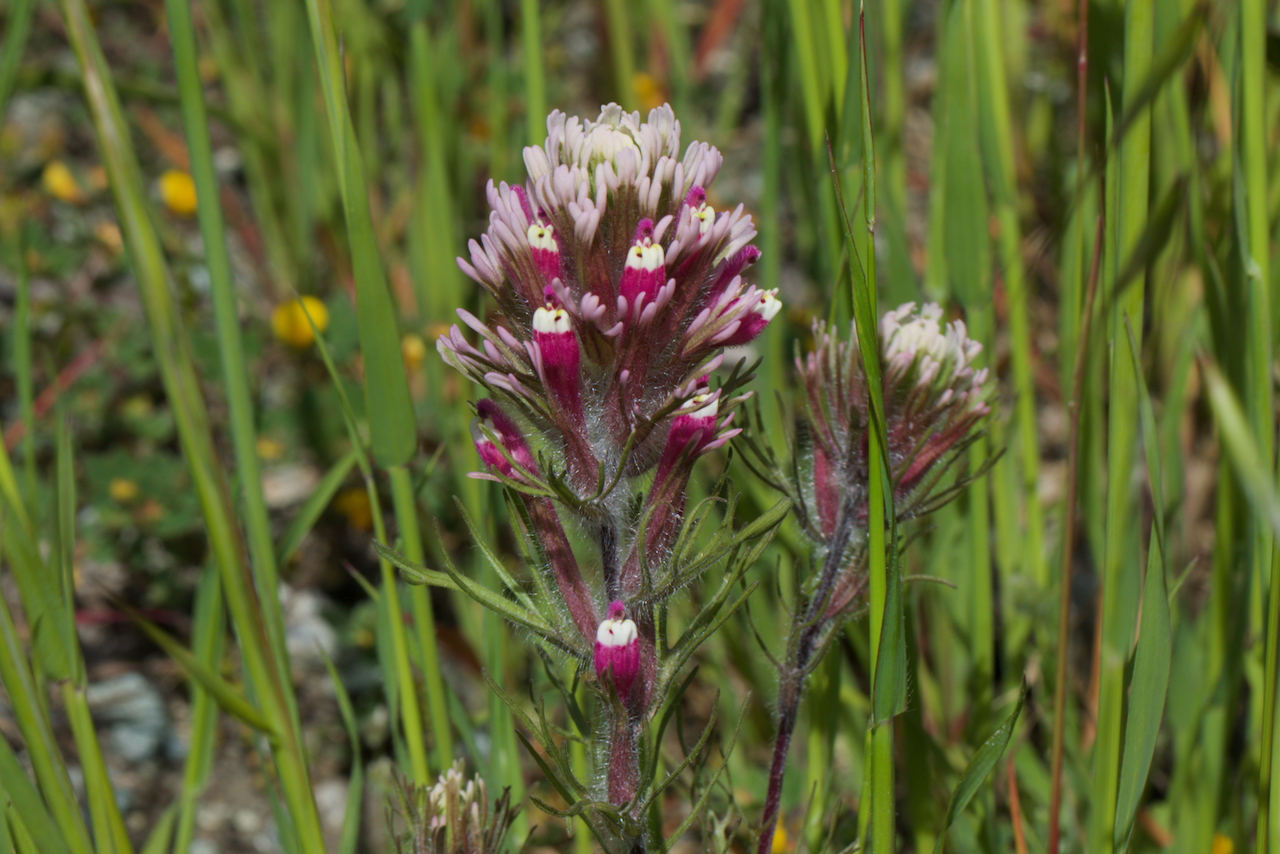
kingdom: Plantae
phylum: Tracheophyta
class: Magnoliopsida
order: Lamiales
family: Orobanchaceae
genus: Castilleja
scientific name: Castilleja exserta
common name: Purple owl-clover
